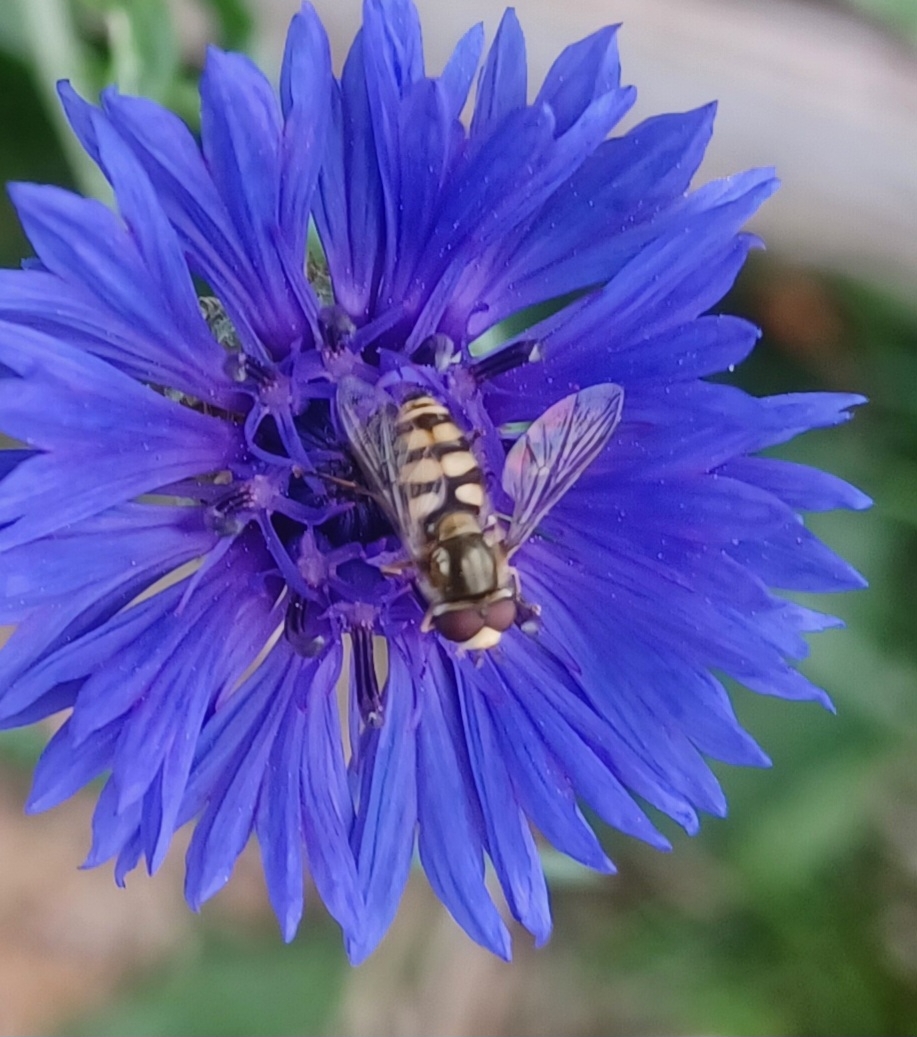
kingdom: Animalia
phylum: Arthropoda
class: Insecta
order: Diptera
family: Syrphidae
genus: Eupeodes
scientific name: Eupeodes corollae
